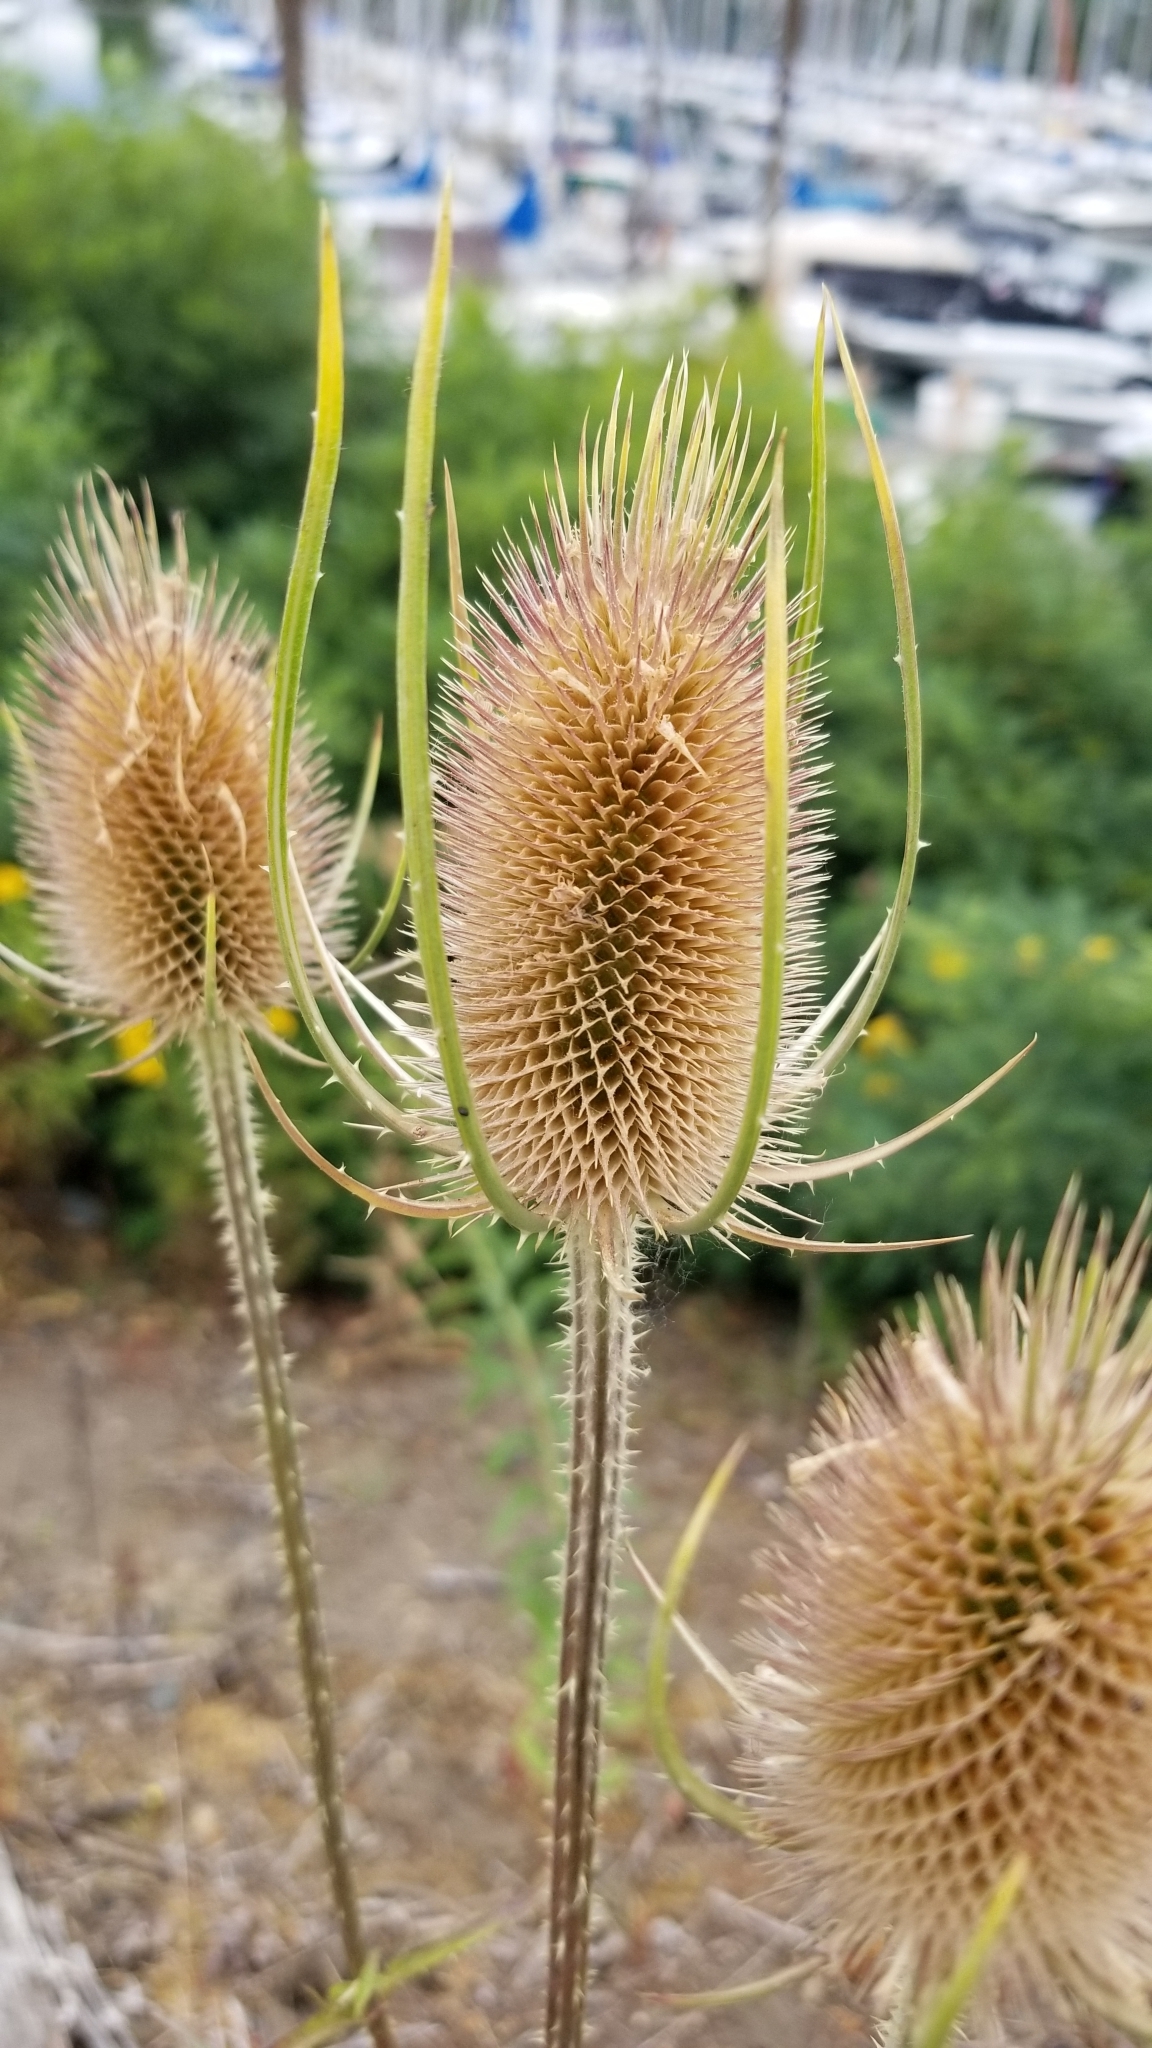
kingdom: Plantae
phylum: Tracheophyta
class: Magnoliopsida
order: Dipsacales
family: Caprifoliaceae
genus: Dipsacus
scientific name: Dipsacus fullonum
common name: Teasel
